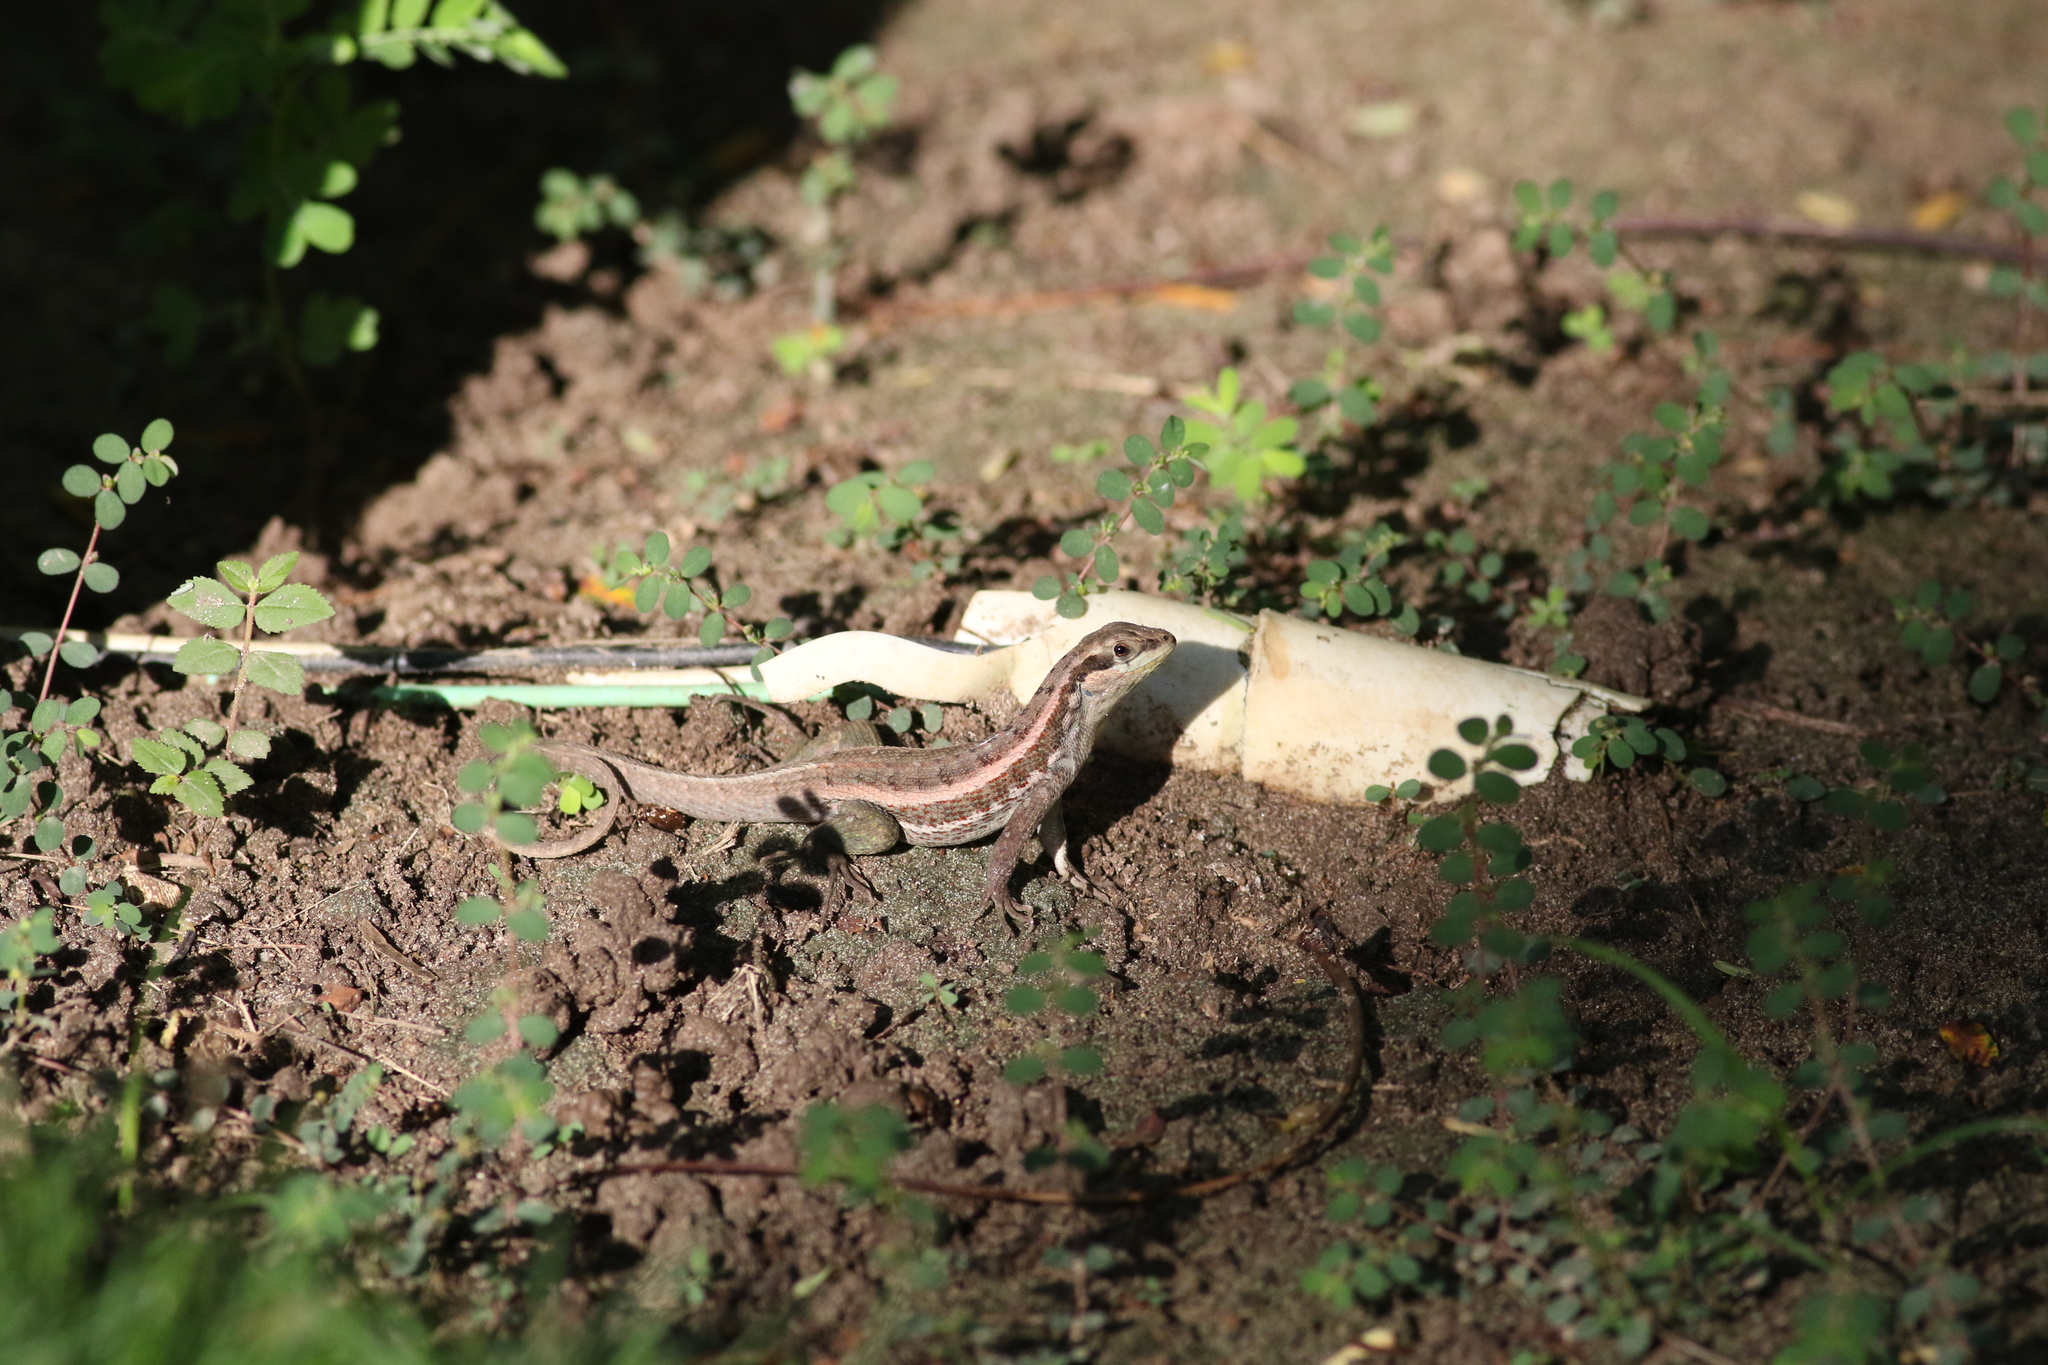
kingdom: Animalia
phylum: Chordata
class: Squamata
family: Leiocephalidae
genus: Leiocephalus
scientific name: Leiocephalus personatus
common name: Haitian curlytail lizard
